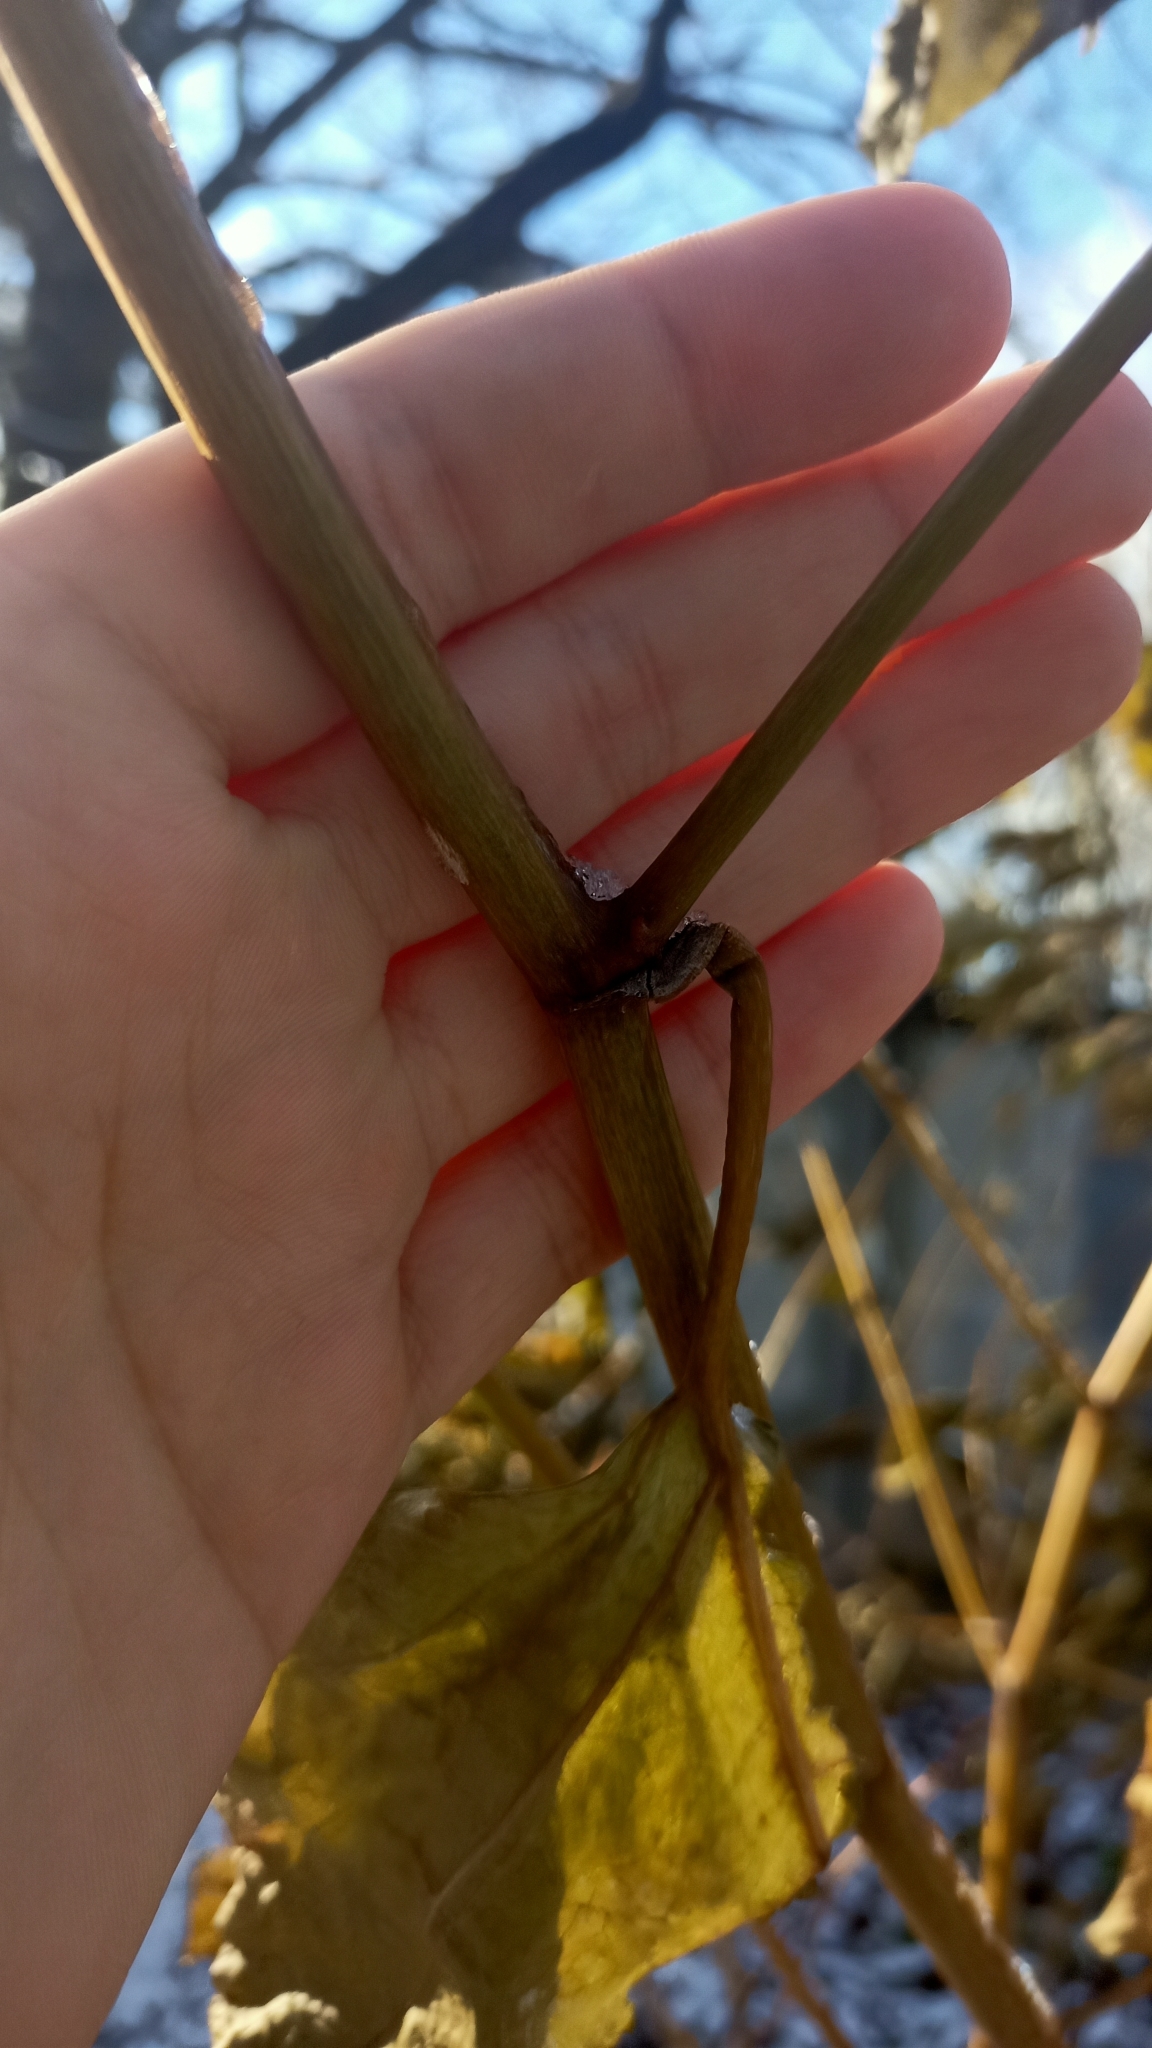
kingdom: Plantae
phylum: Tracheophyta
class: Magnoliopsida
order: Caryophyllales
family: Polygonaceae
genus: Reynoutria
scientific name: Reynoutria bohemica
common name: Bohemian knotweed
